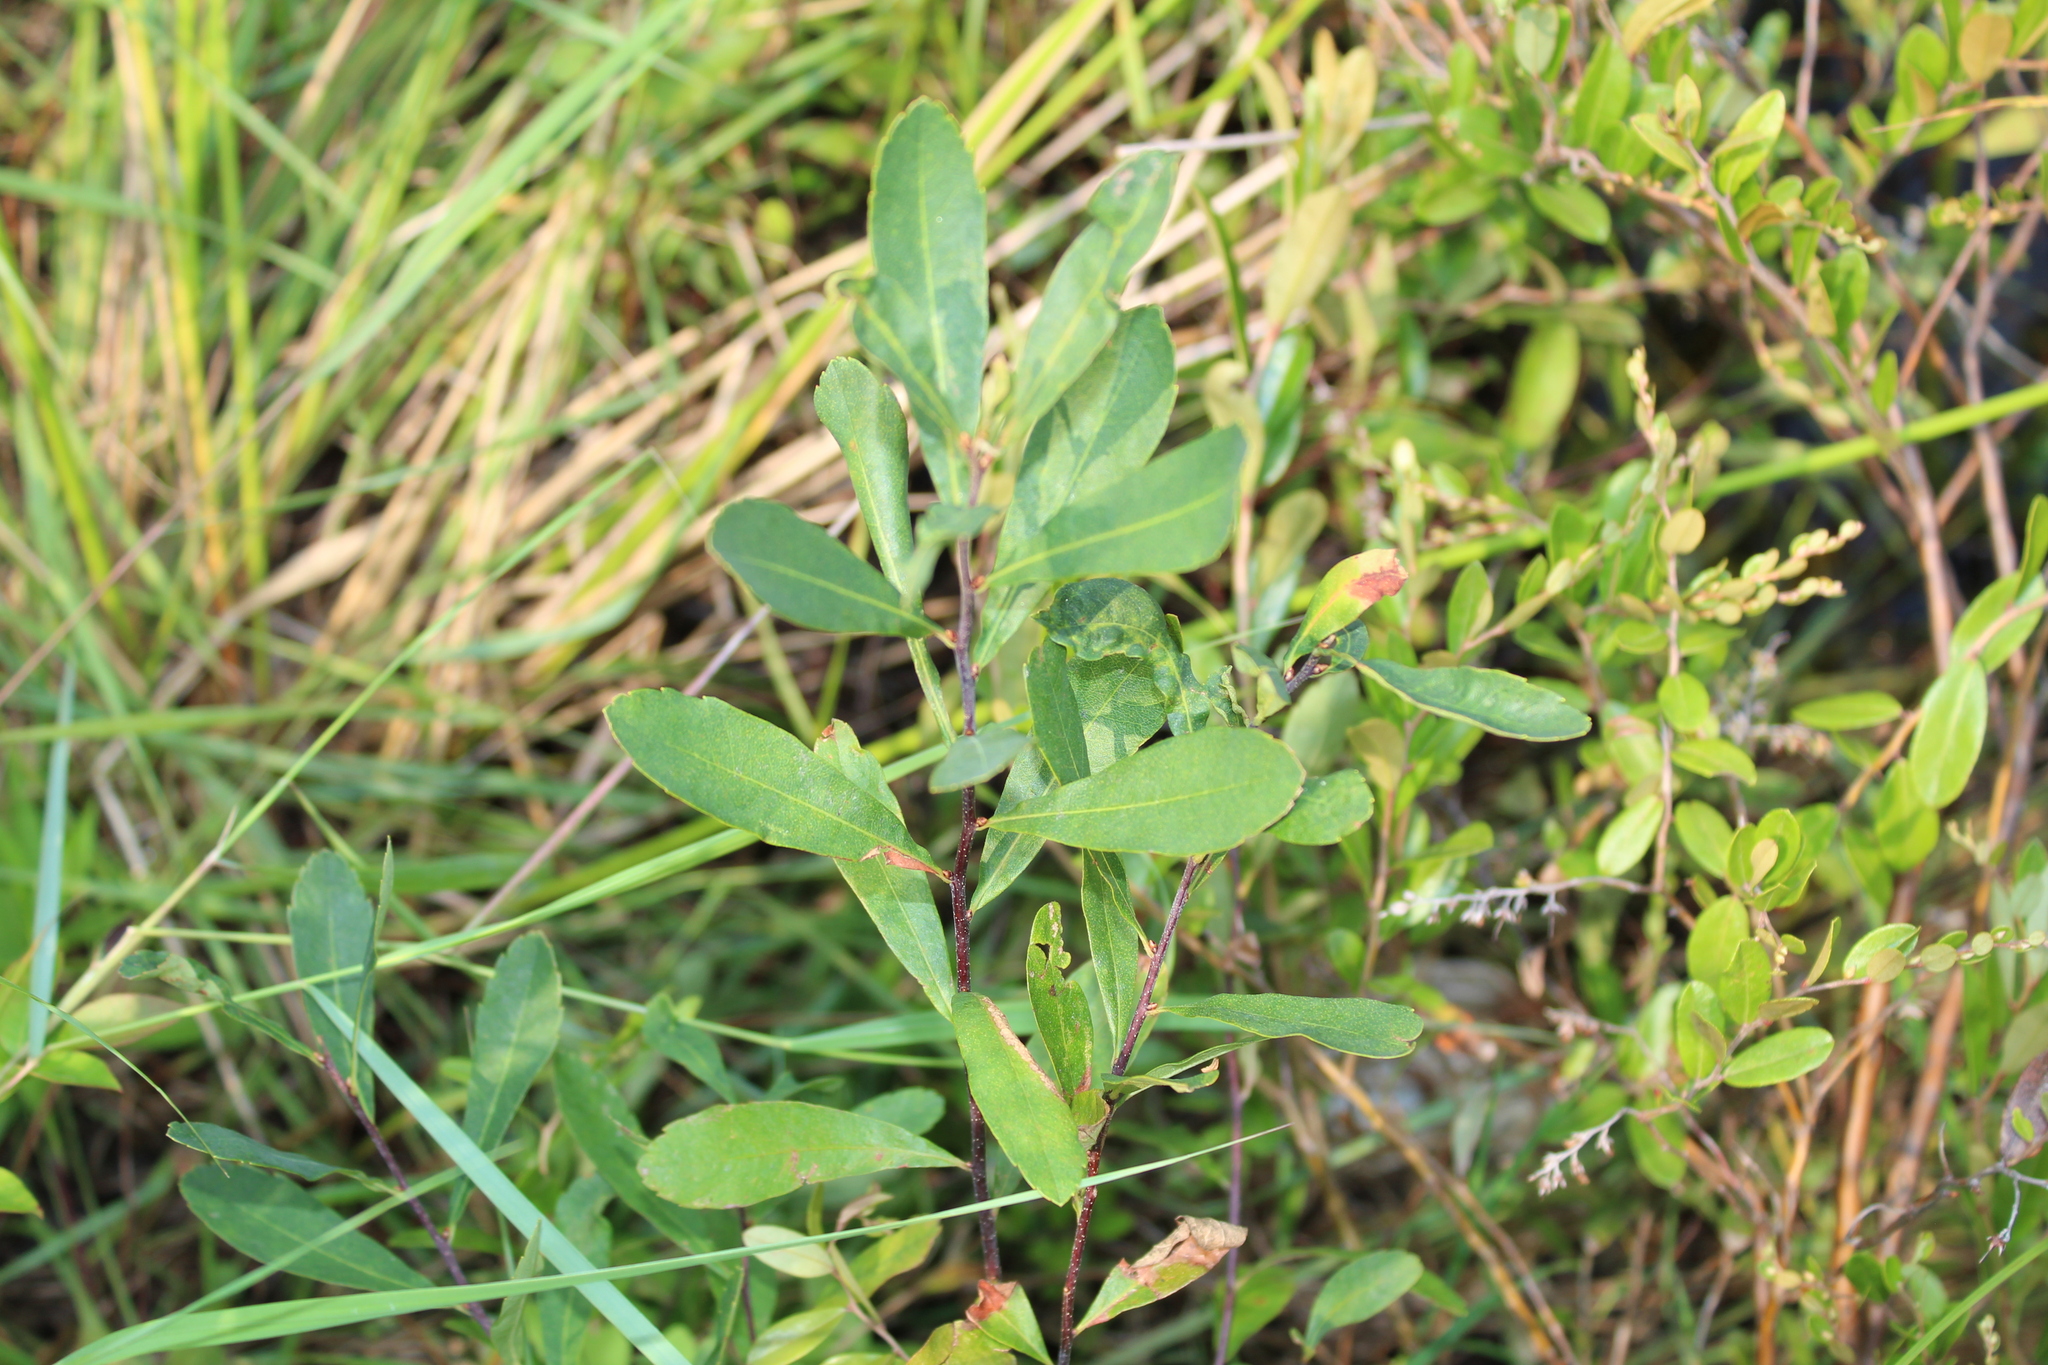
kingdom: Plantae
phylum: Tracheophyta
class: Magnoliopsida
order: Fagales
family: Myricaceae
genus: Myrica
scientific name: Myrica gale
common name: Sweet gale
